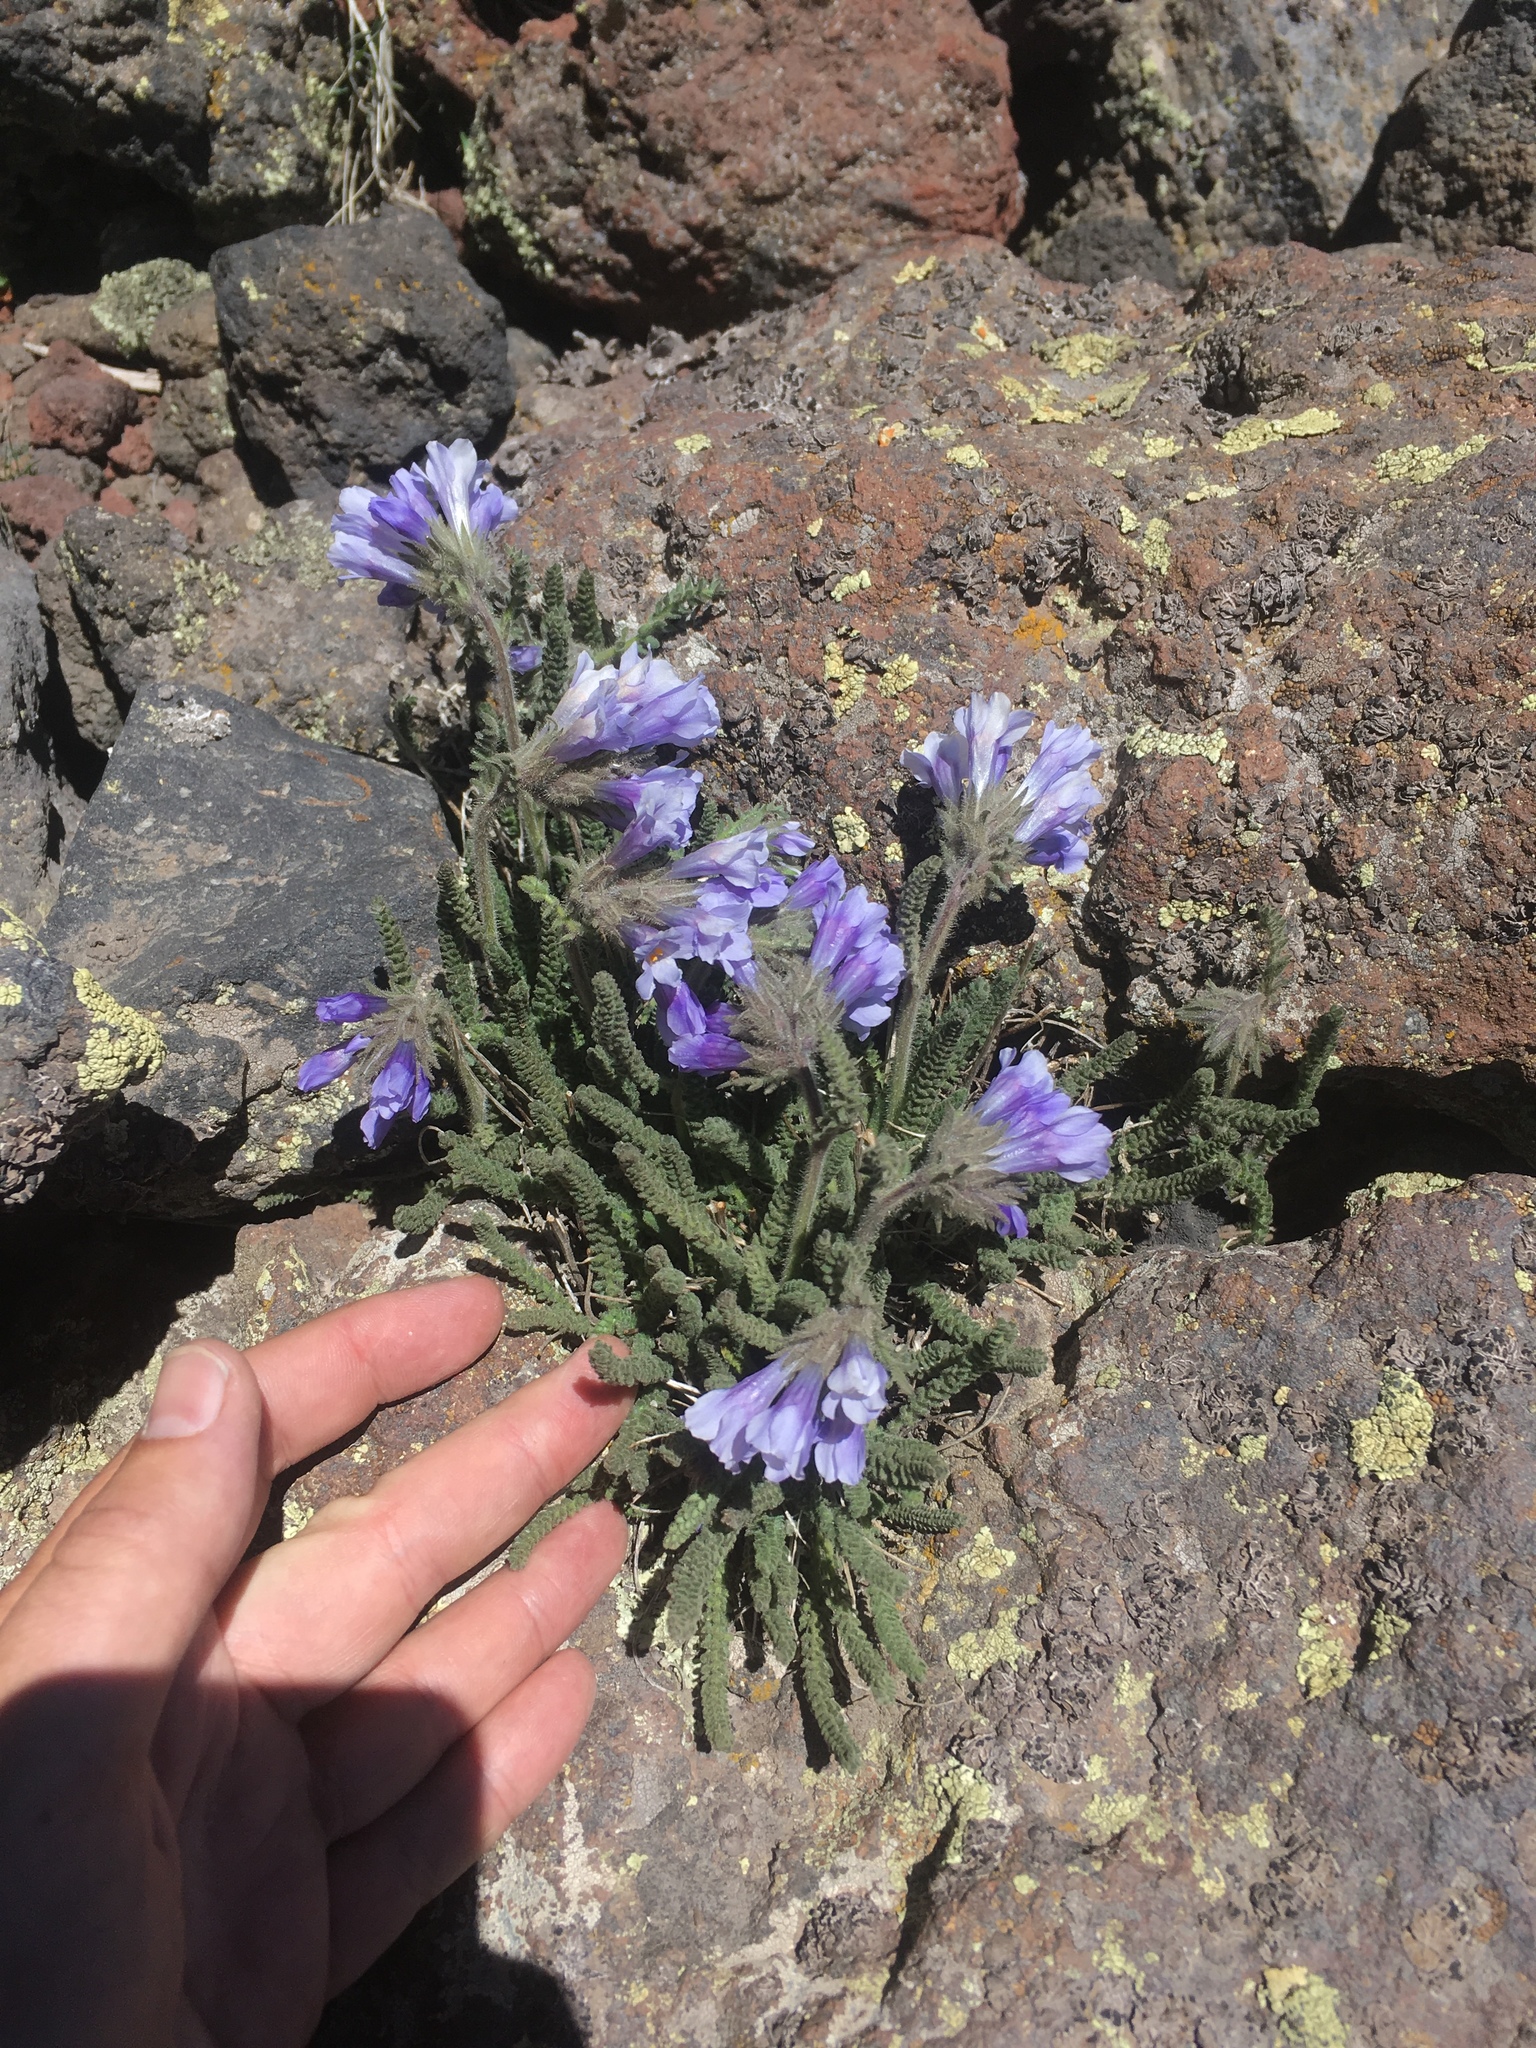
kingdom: Plantae
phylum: Tracheophyta
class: Magnoliopsida
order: Ericales
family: Polemoniaceae
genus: Polemonium
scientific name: Polemonium viscosum
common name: Skunk jacob's-ladder
